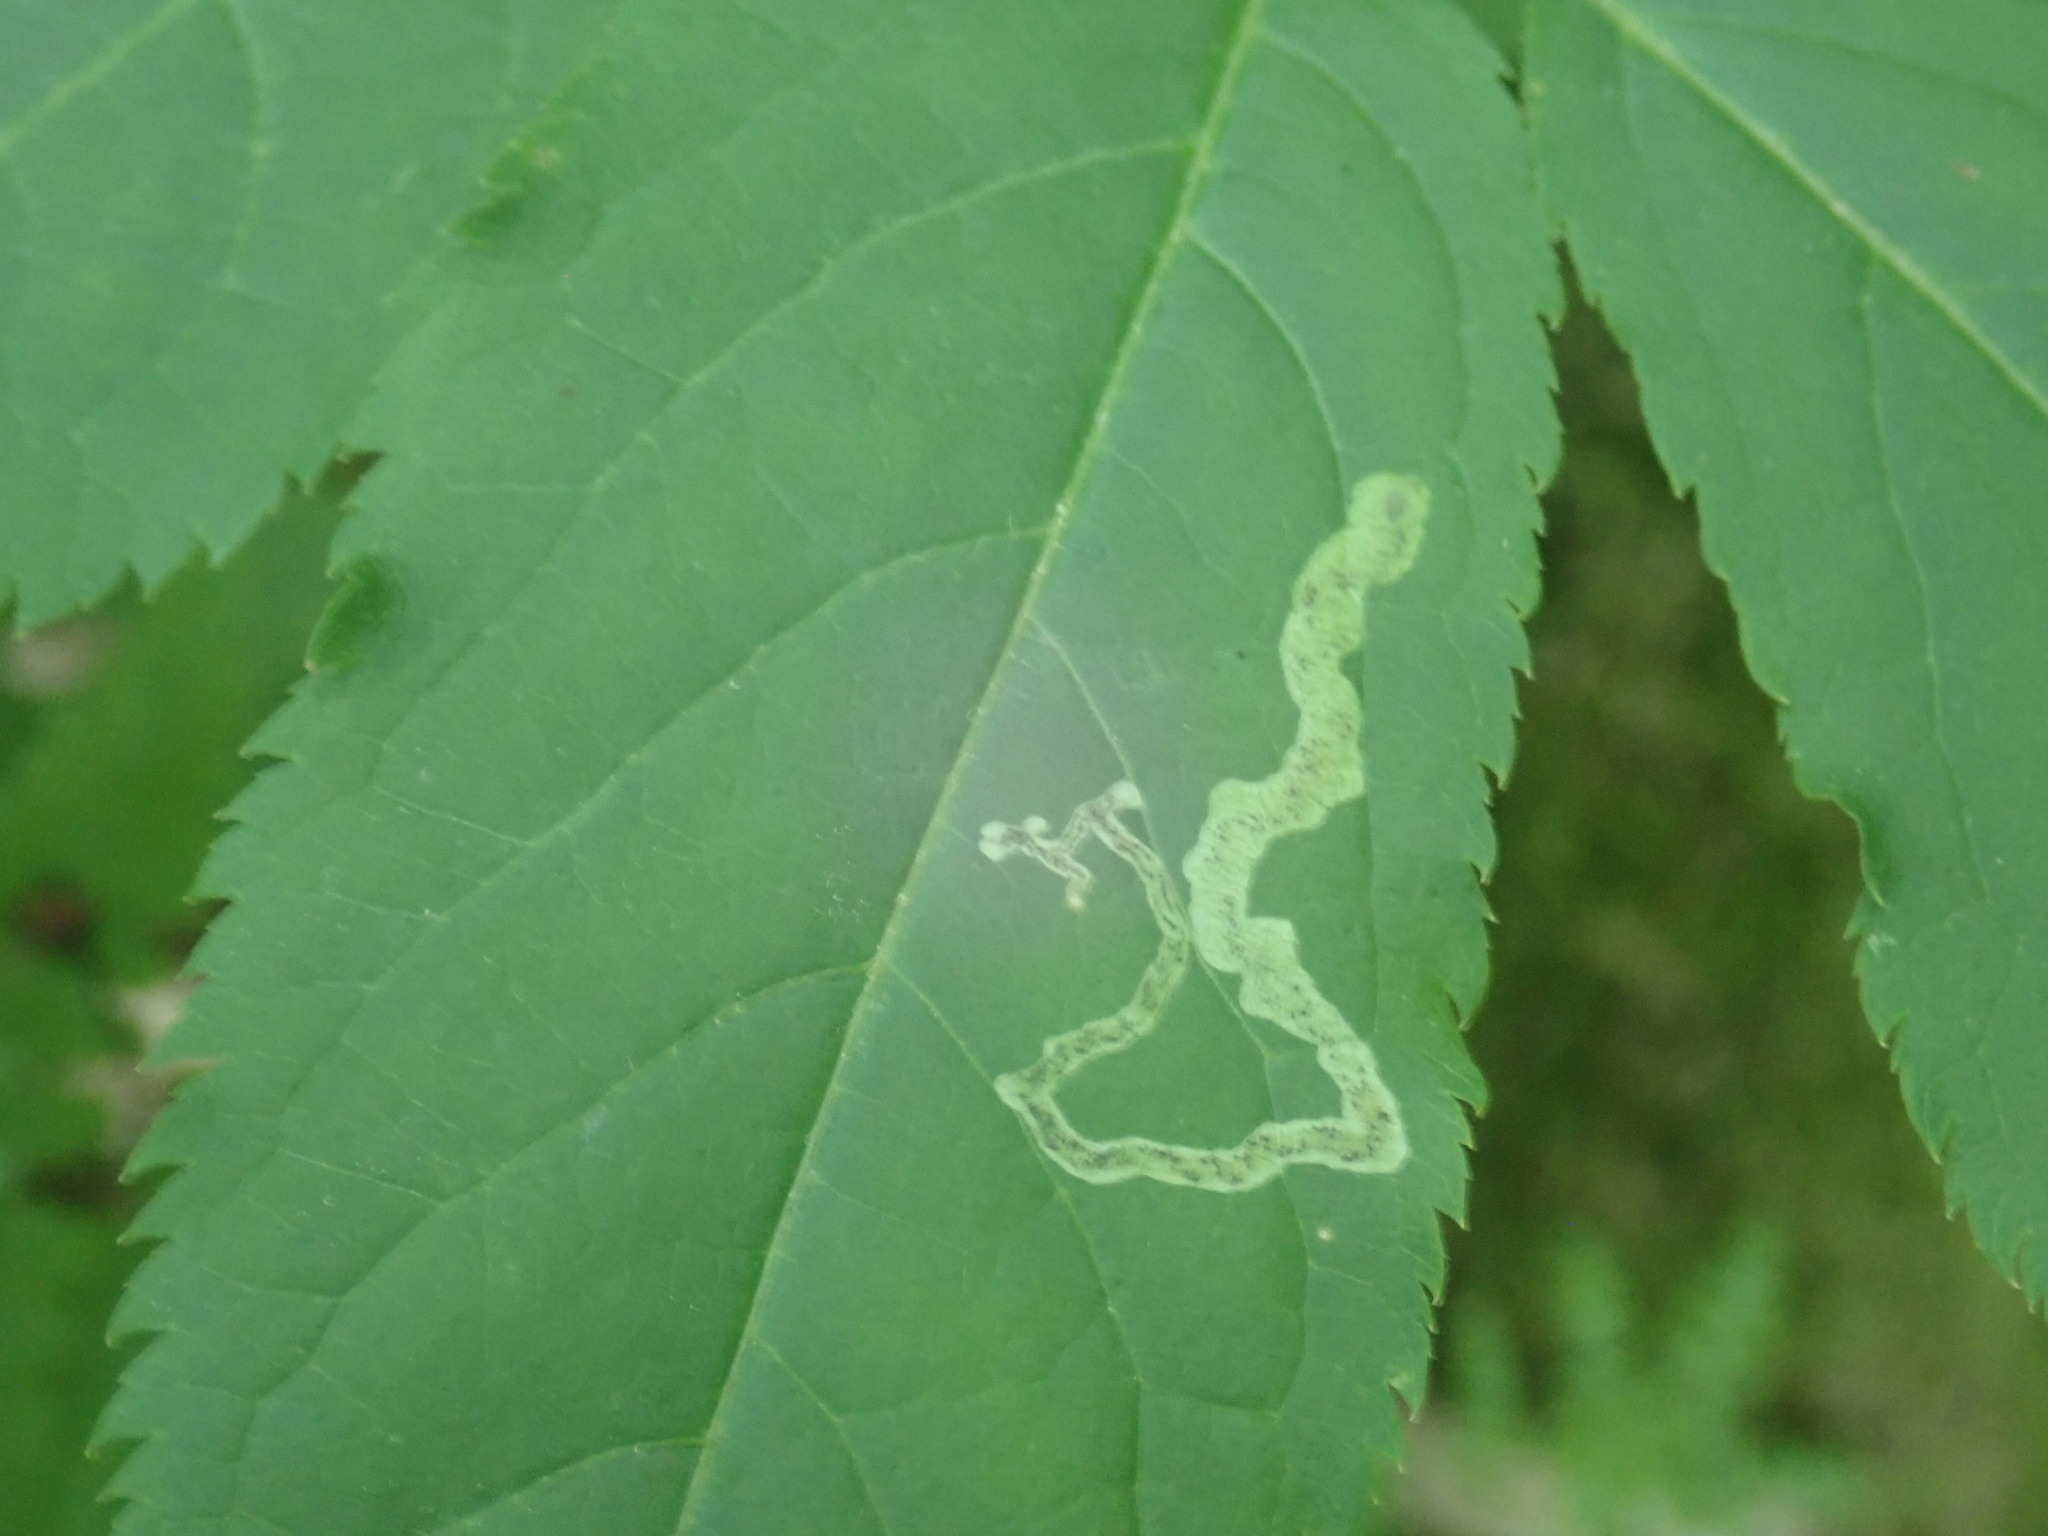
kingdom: Animalia
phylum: Arthropoda
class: Insecta
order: Diptera
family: Agromyzidae
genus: Phytomyza
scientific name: Phytomyza aralivora
